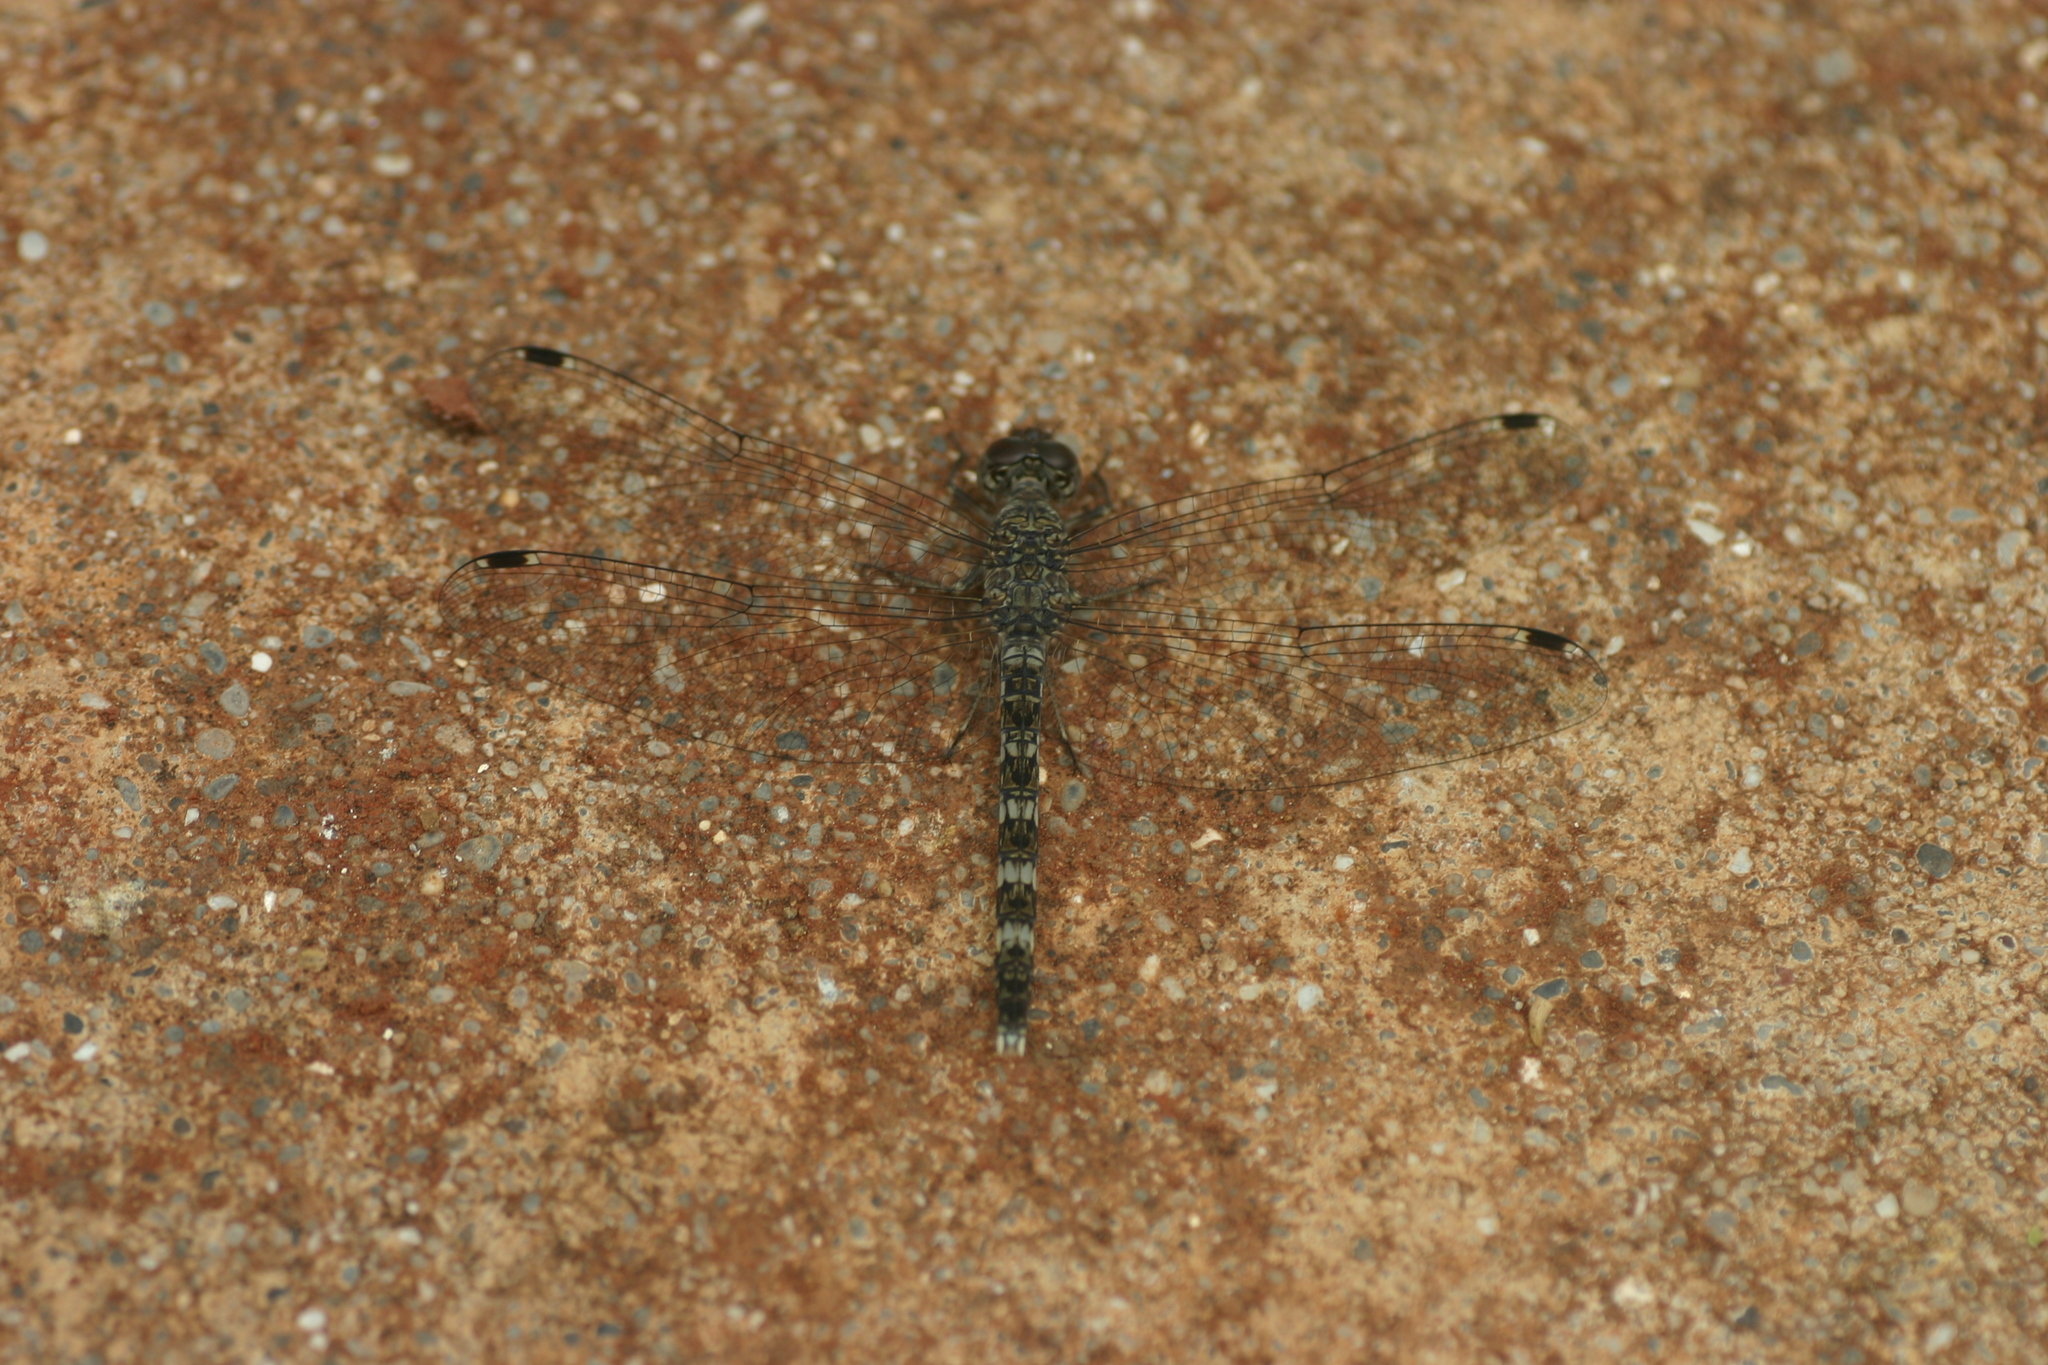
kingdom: Animalia
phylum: Arthropoda
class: Insecta
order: Odonata
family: Libellulidae
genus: Bradinopyga
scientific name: Bradinopyga geminata
